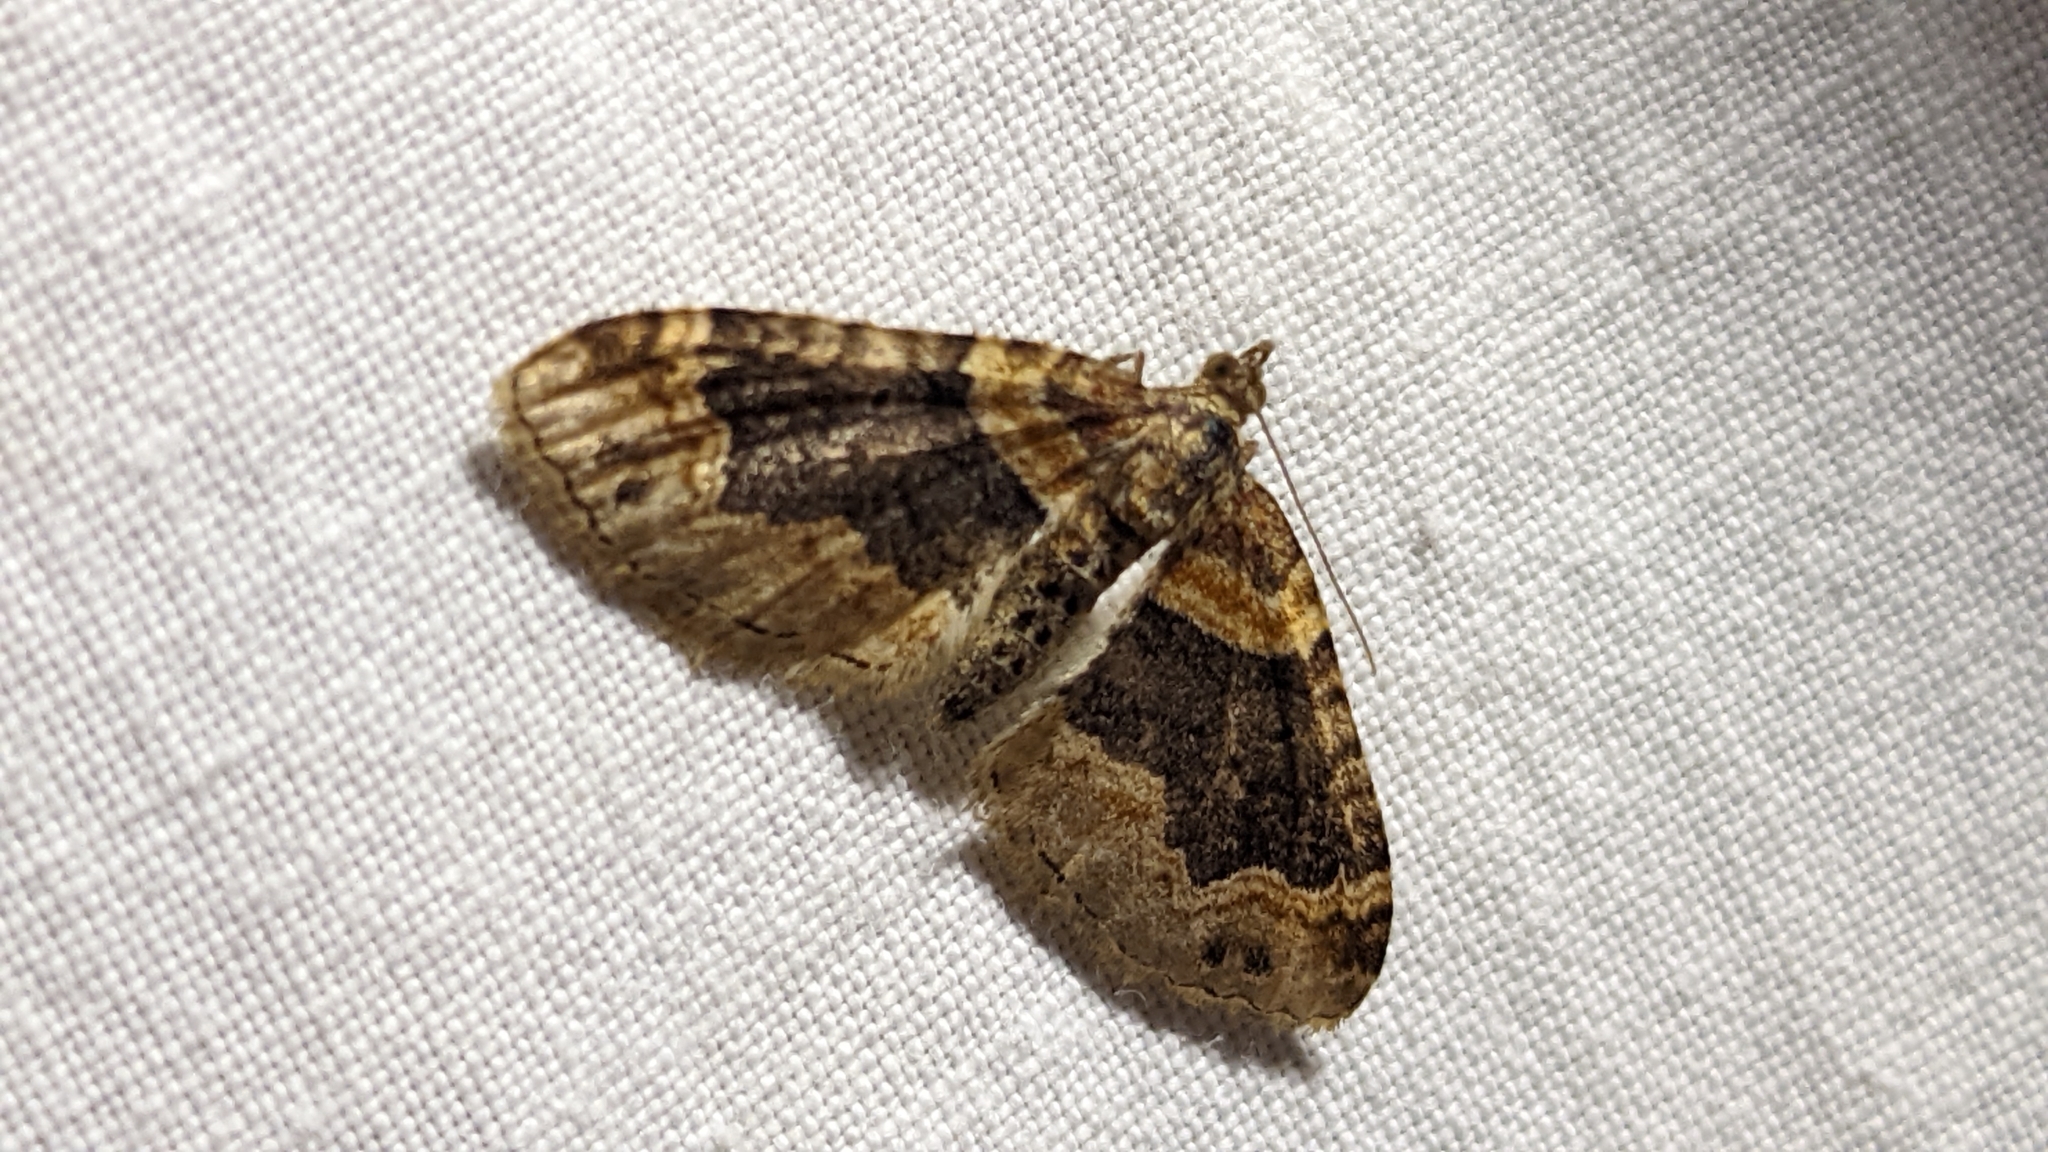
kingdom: Animalia
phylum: Arthropoda
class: Insecta
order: Lepidoptera
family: Geometridae
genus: Xanthorhoe
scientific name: Xanthorhoe ferrugata
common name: Dark-barred twin-spot carpet
